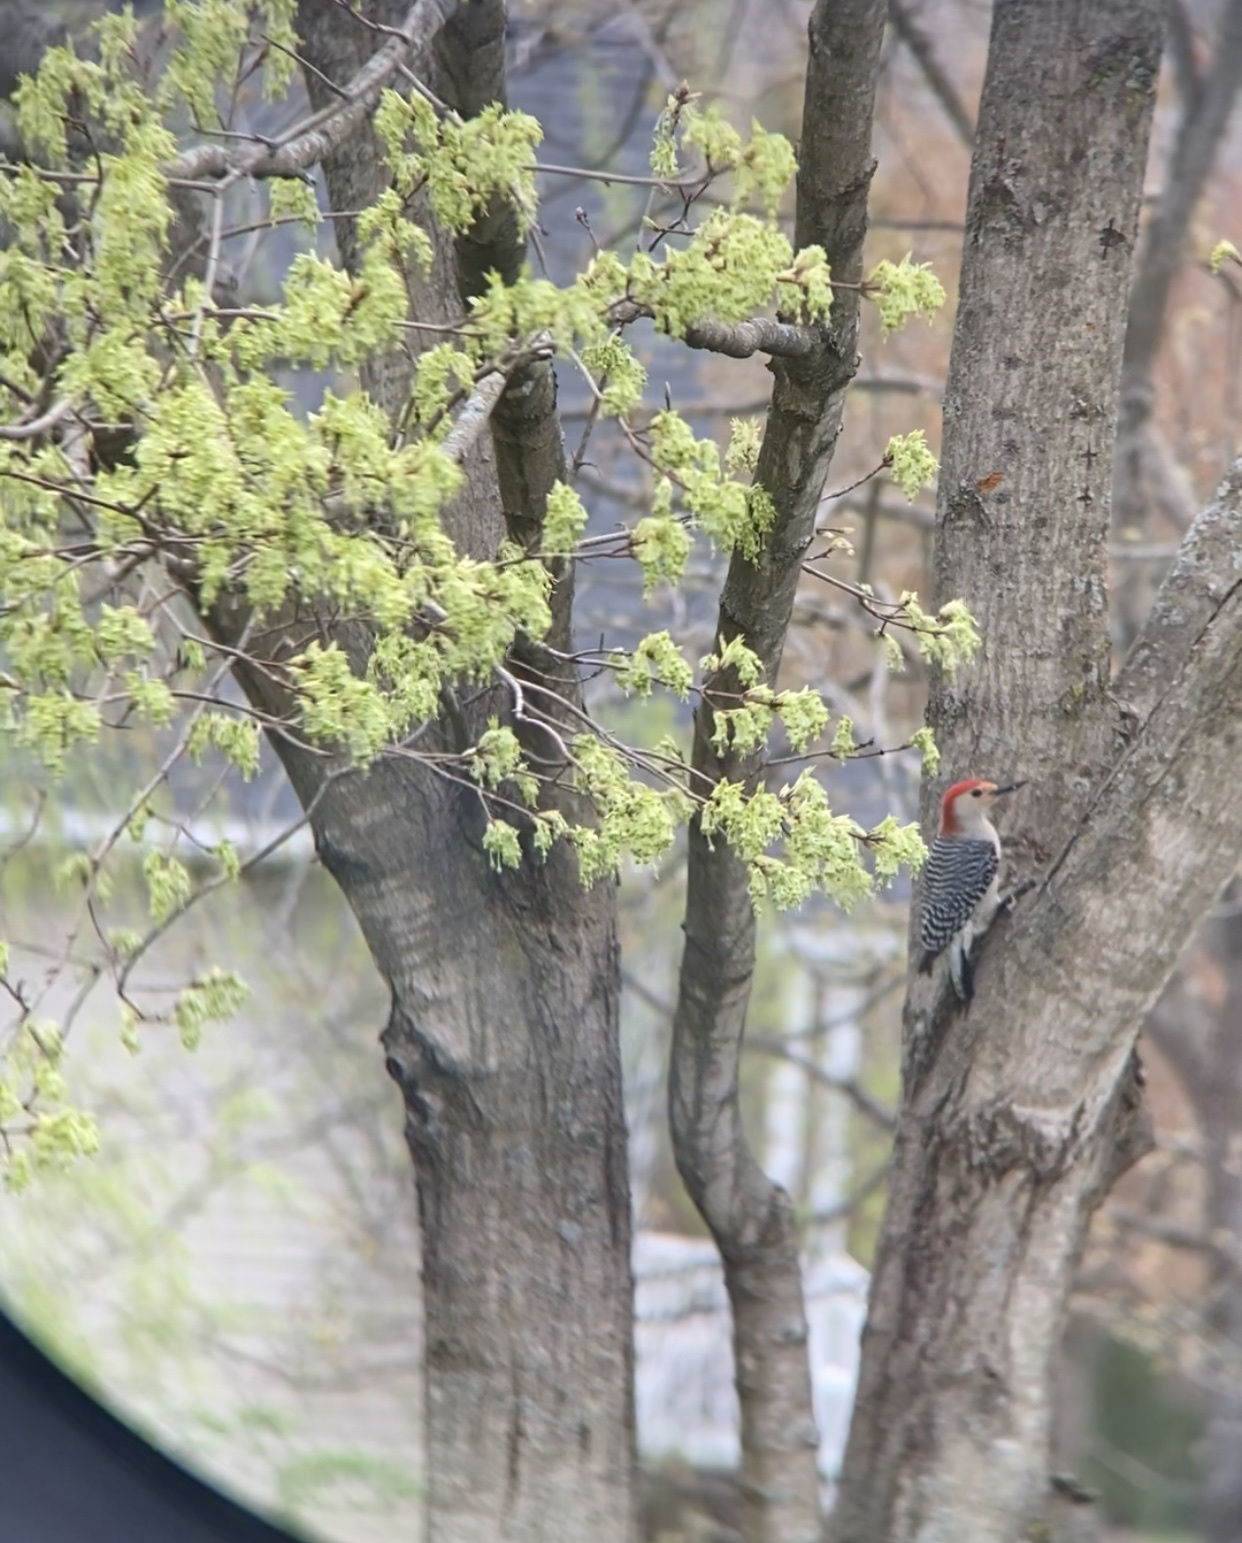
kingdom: Animalia
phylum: Chordata
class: Aves
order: Piciformes
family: Picidae
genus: Melanerpes
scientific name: Melanerpes carolinus
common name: Red-bellied woodpecker
